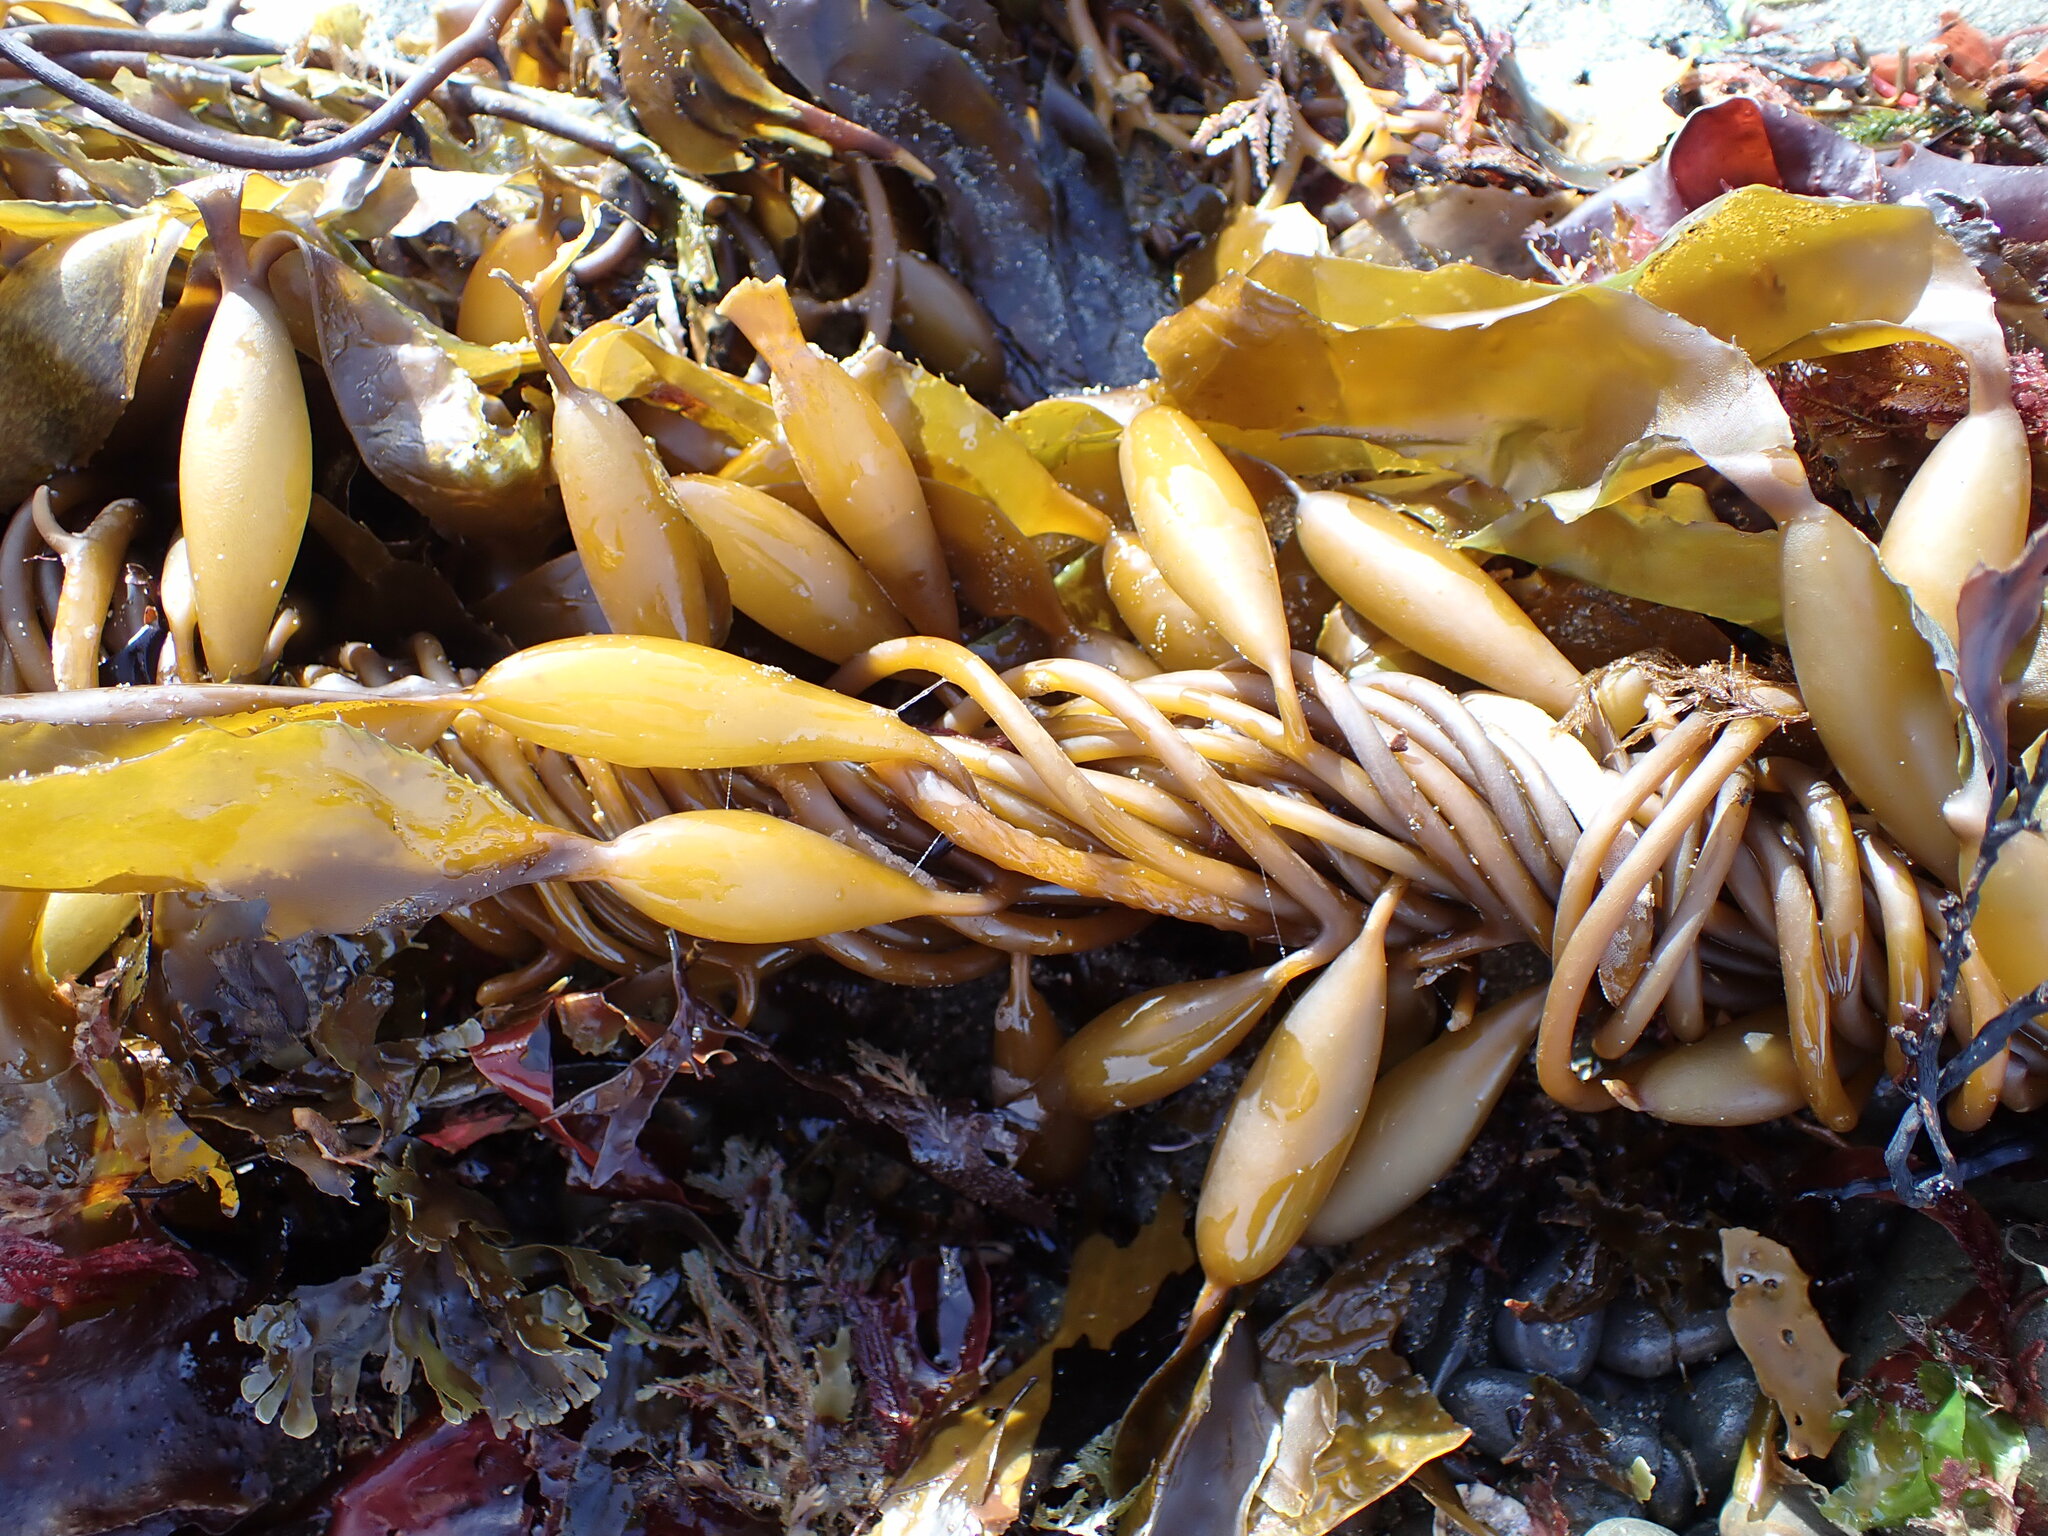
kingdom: Chromista
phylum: Ochrophyta
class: Phaeophyceae
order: Laminariales
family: Laminariaceae
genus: Macrocystis
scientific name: Macrocystis pyrifera
